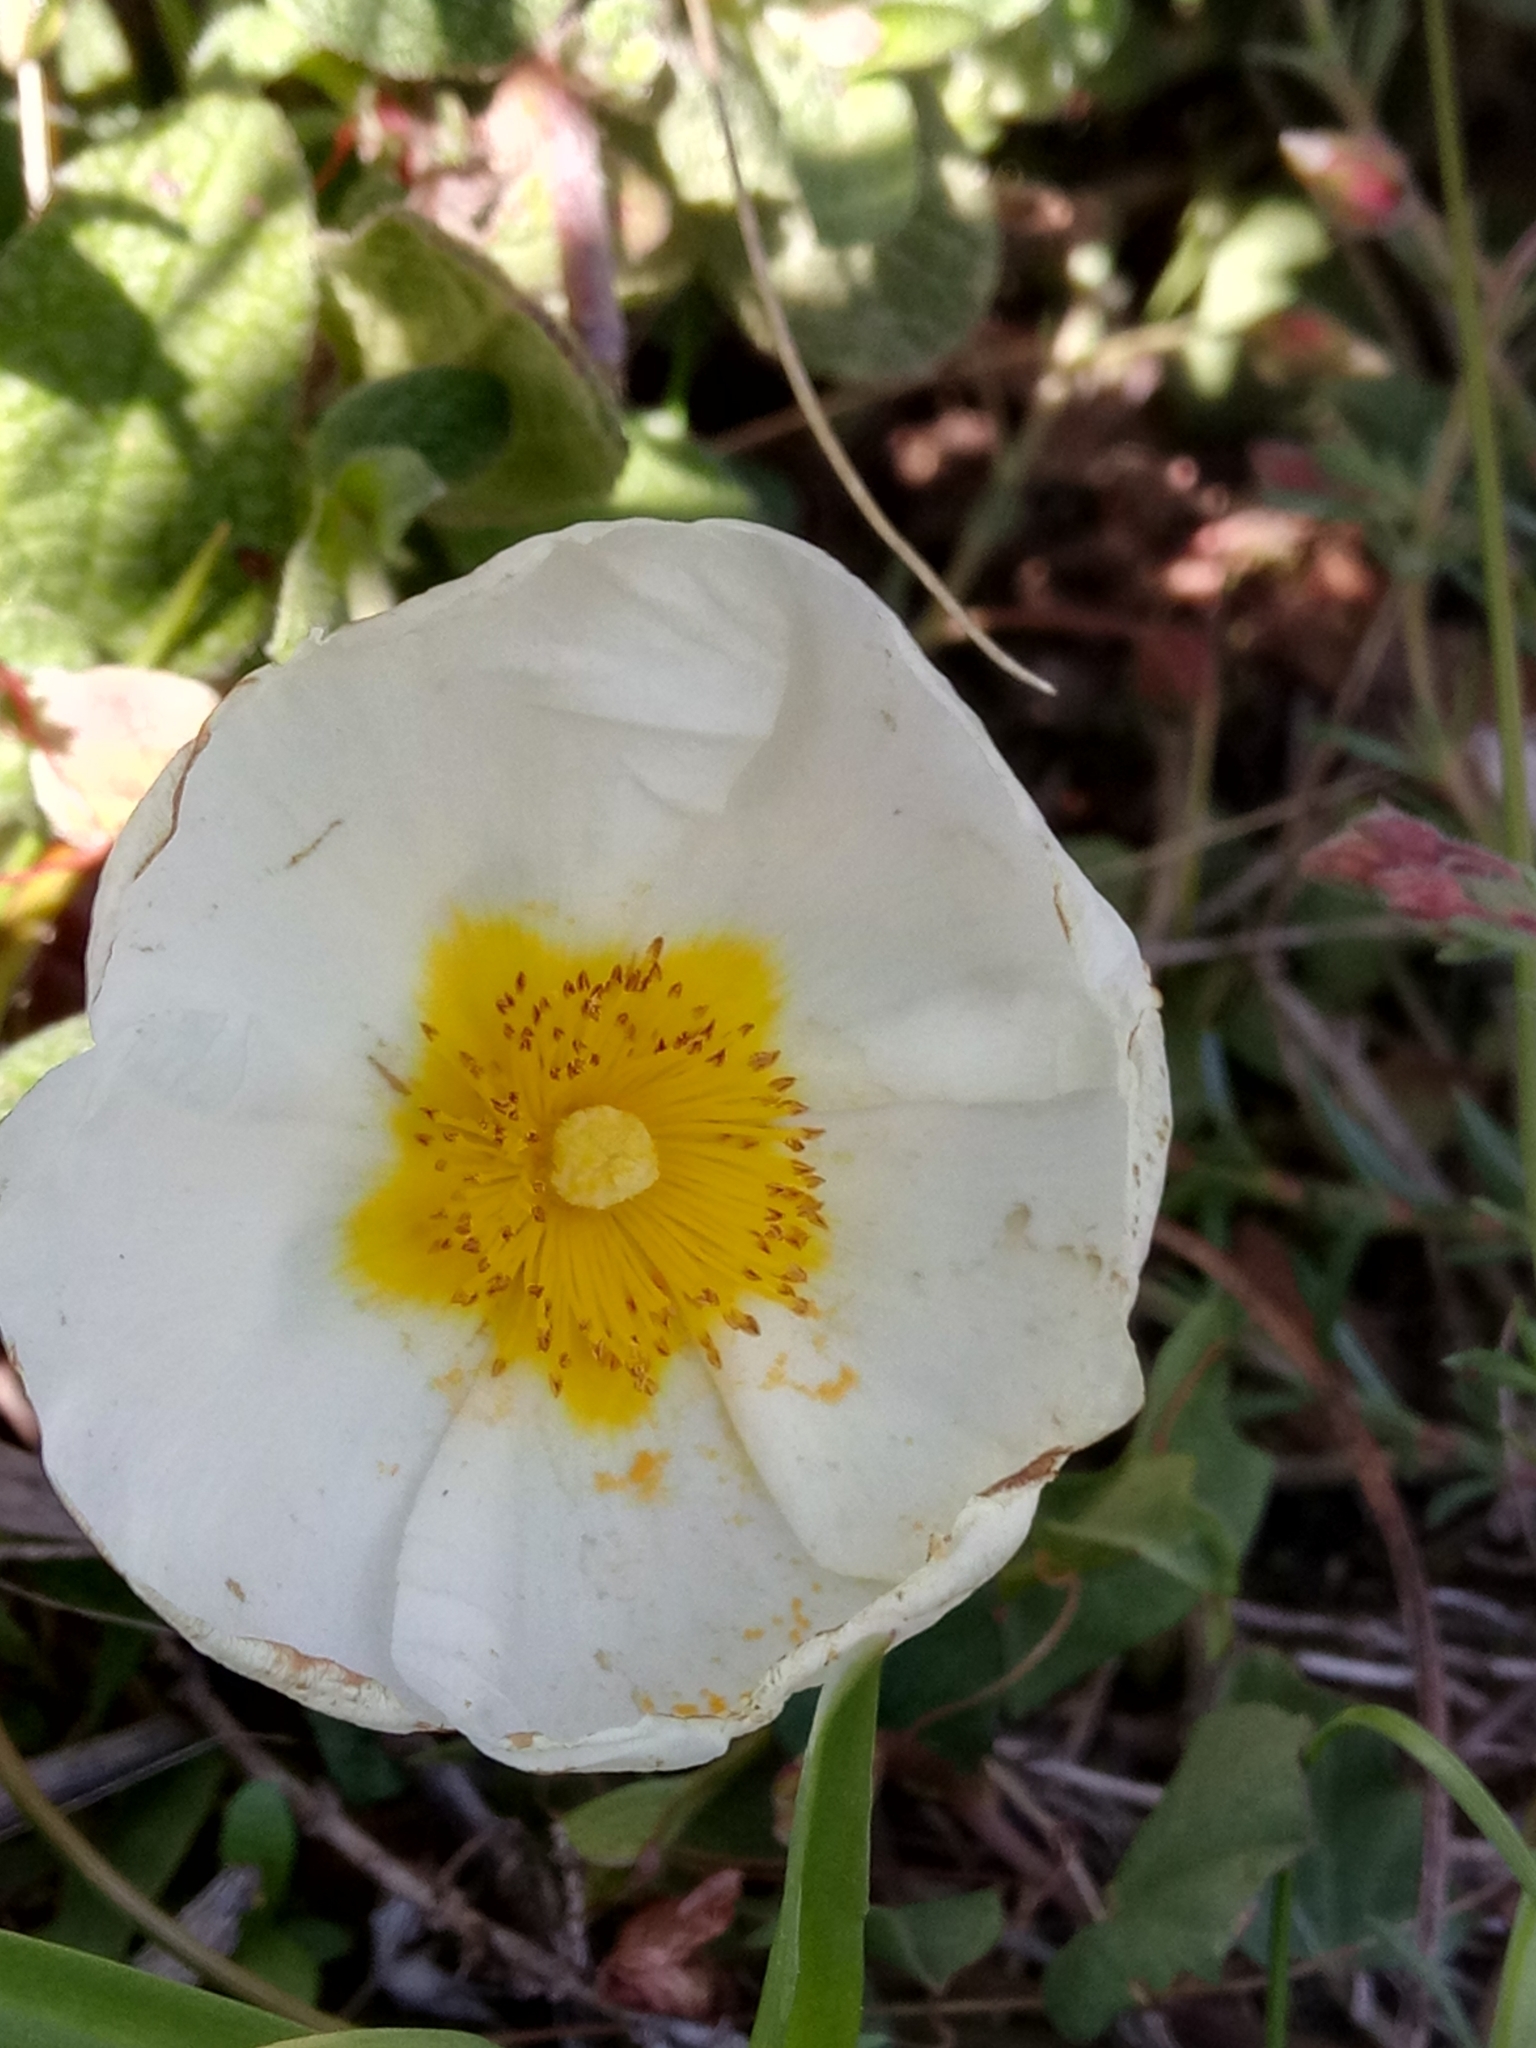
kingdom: Plantae
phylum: Tracheophyta
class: Magnoliopsida
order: Malvales
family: Cistaceae
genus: Cistus
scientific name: Cistus salviifolius
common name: Salvia cistus
